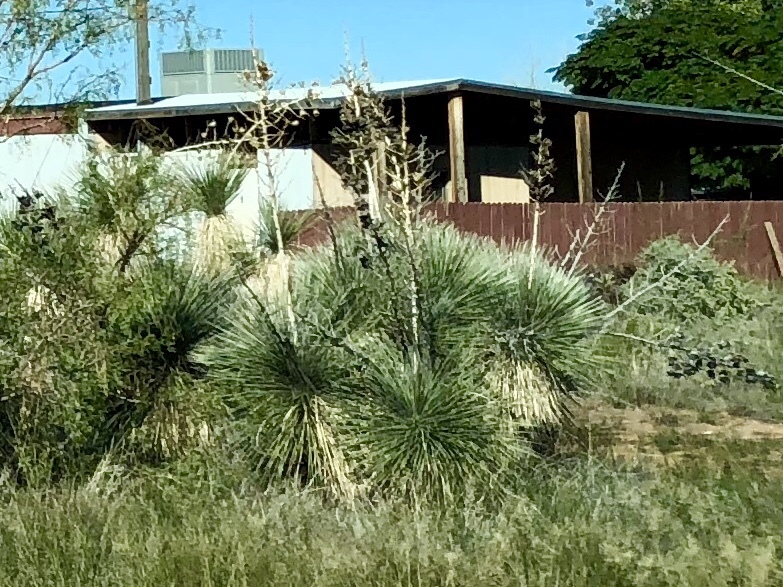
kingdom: Plantae
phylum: Tracheophyta
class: Liliopsida
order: Asparagales
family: Asparagaceae
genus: Yucca
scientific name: Yucca elata
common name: Palmella
